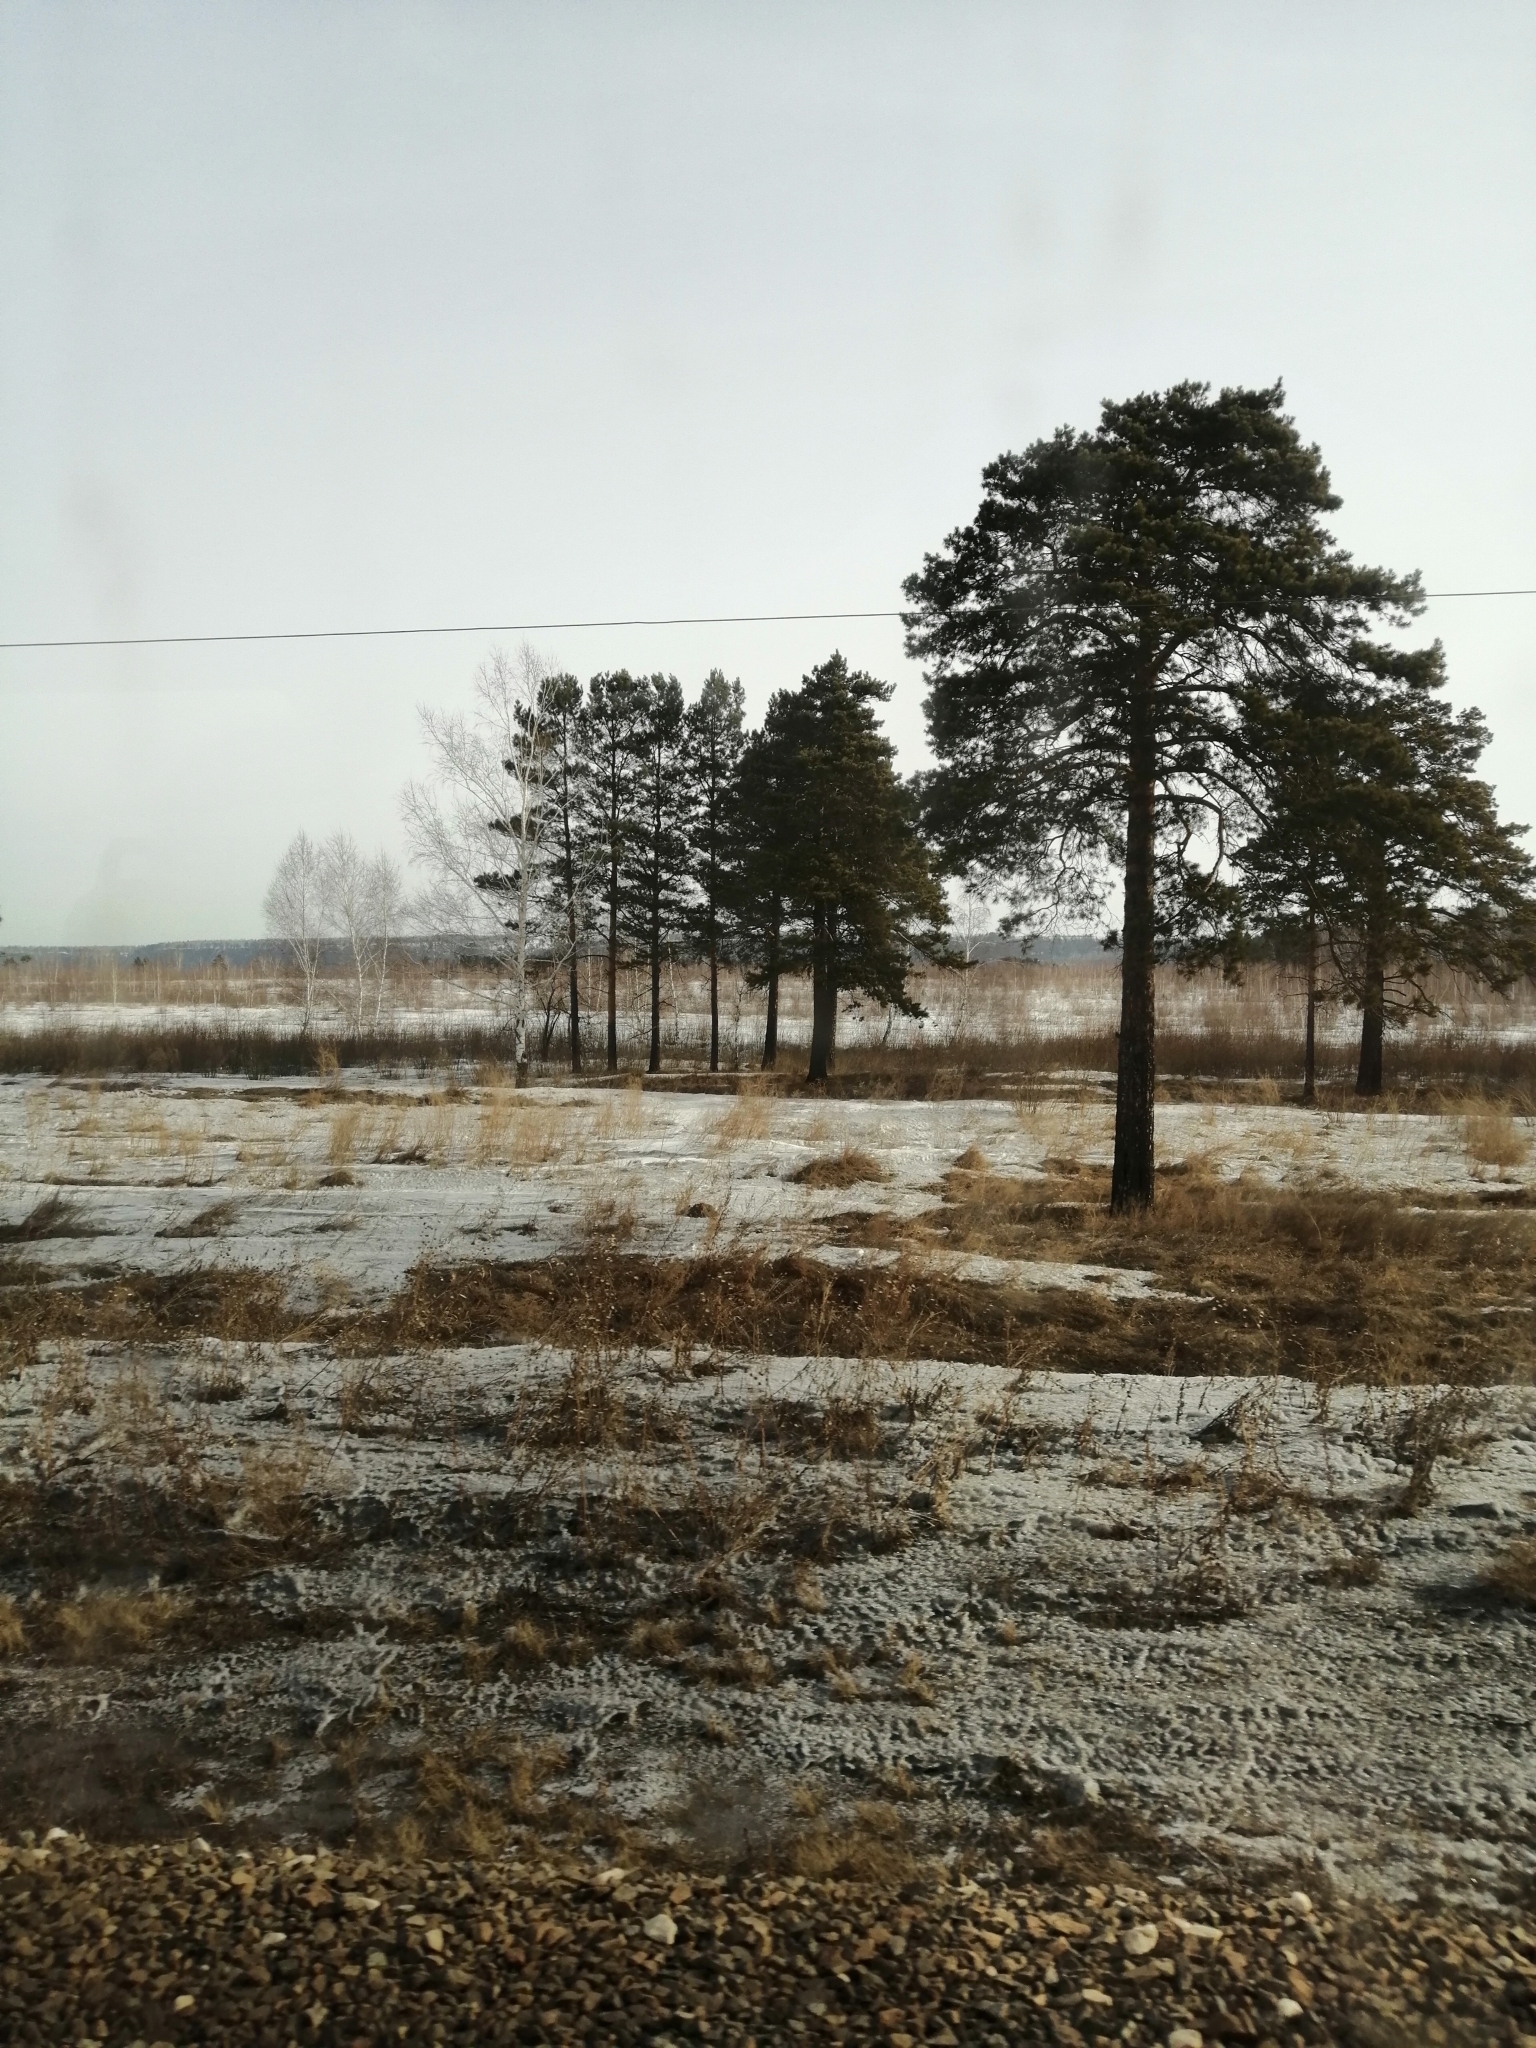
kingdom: Plantae
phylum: Tracheophyta
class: Pinopsida
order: Pinales
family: Pinaceae
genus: Pinus
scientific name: Pinus sylvestris
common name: Scots pine
